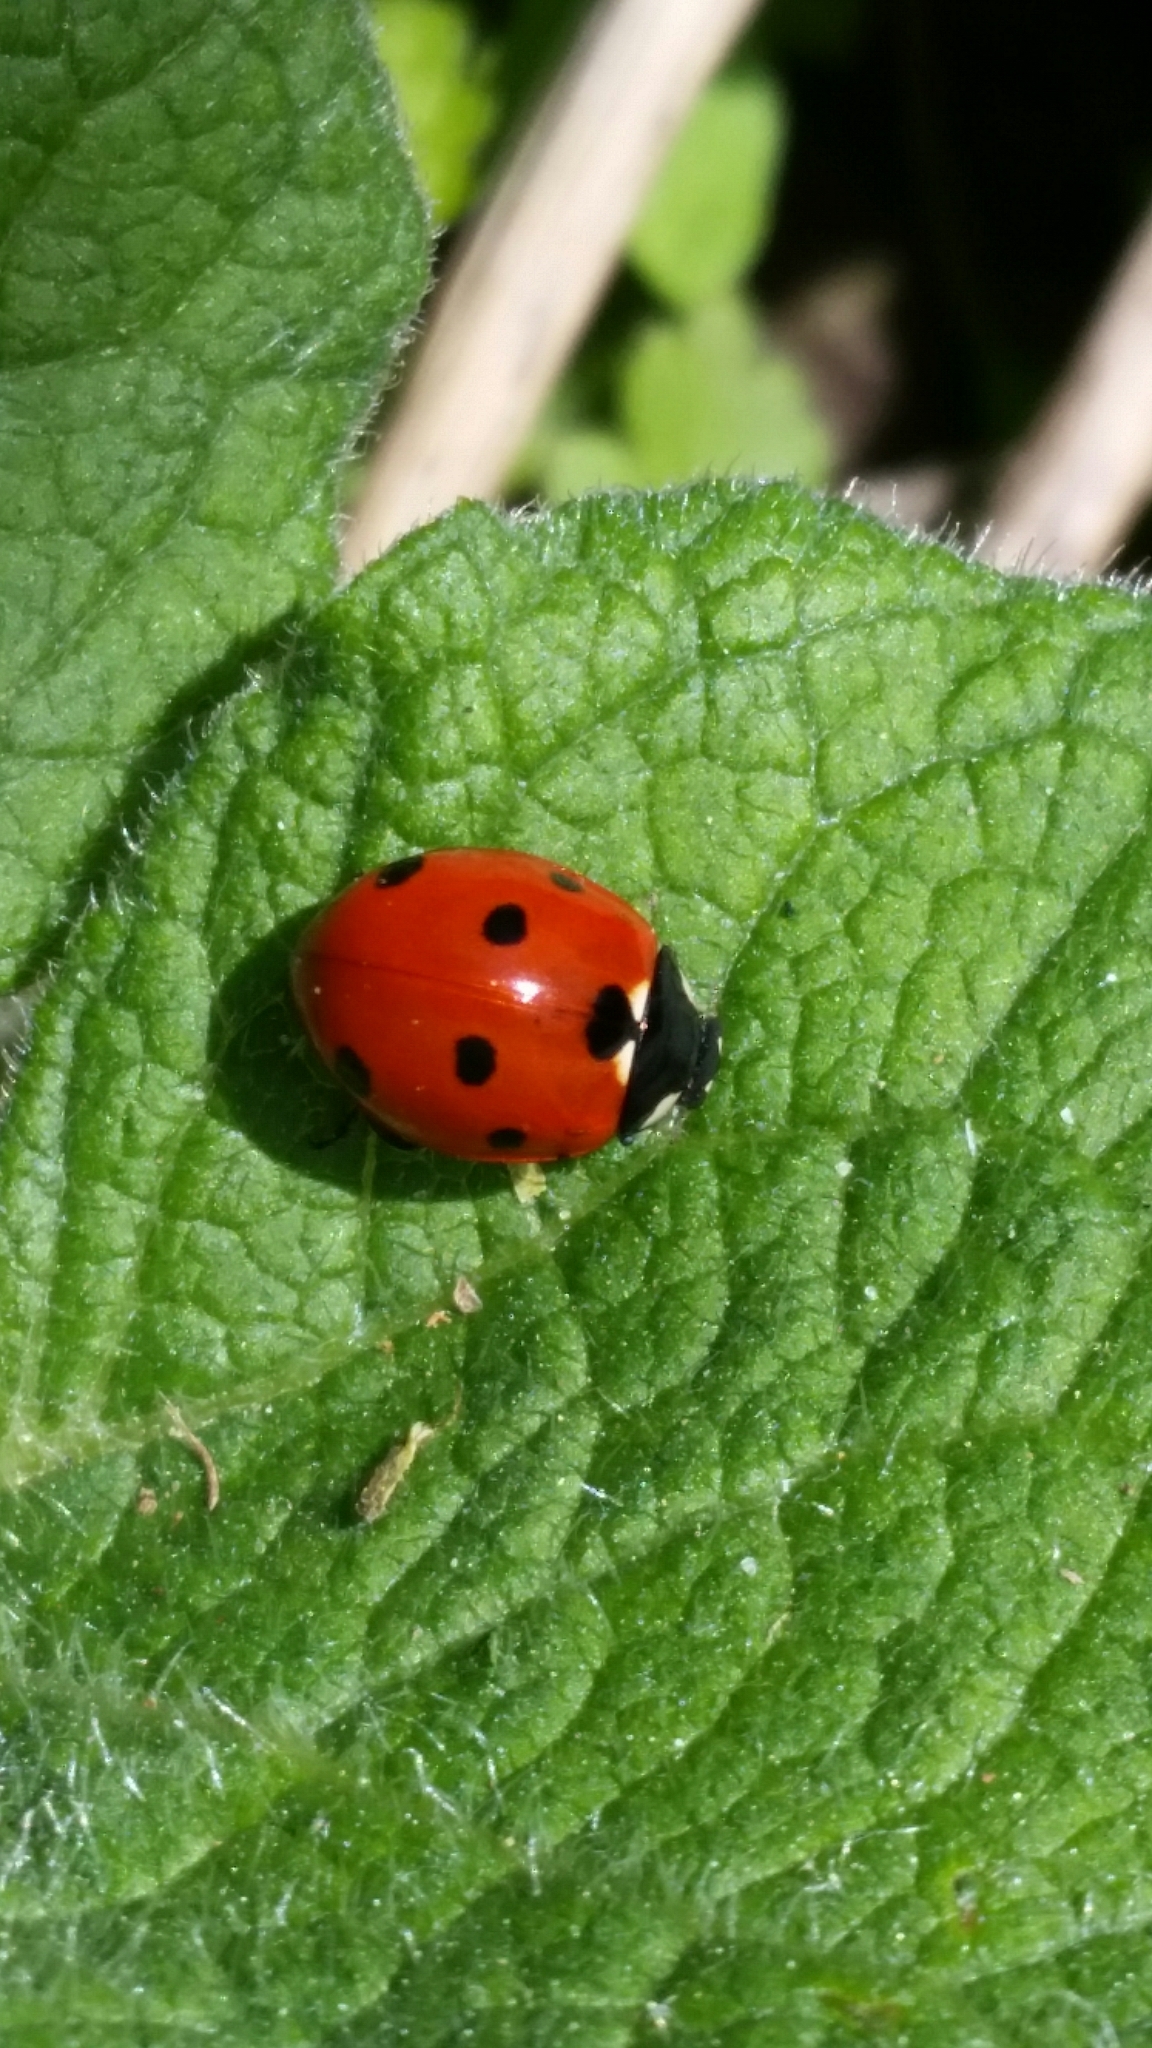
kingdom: Animalia
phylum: Arthropoda
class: Insecta
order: Coleoptera
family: Coccinellidae
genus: Coccinella
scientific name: Coccinella septempunctata
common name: Sevenspotted lady beetle
